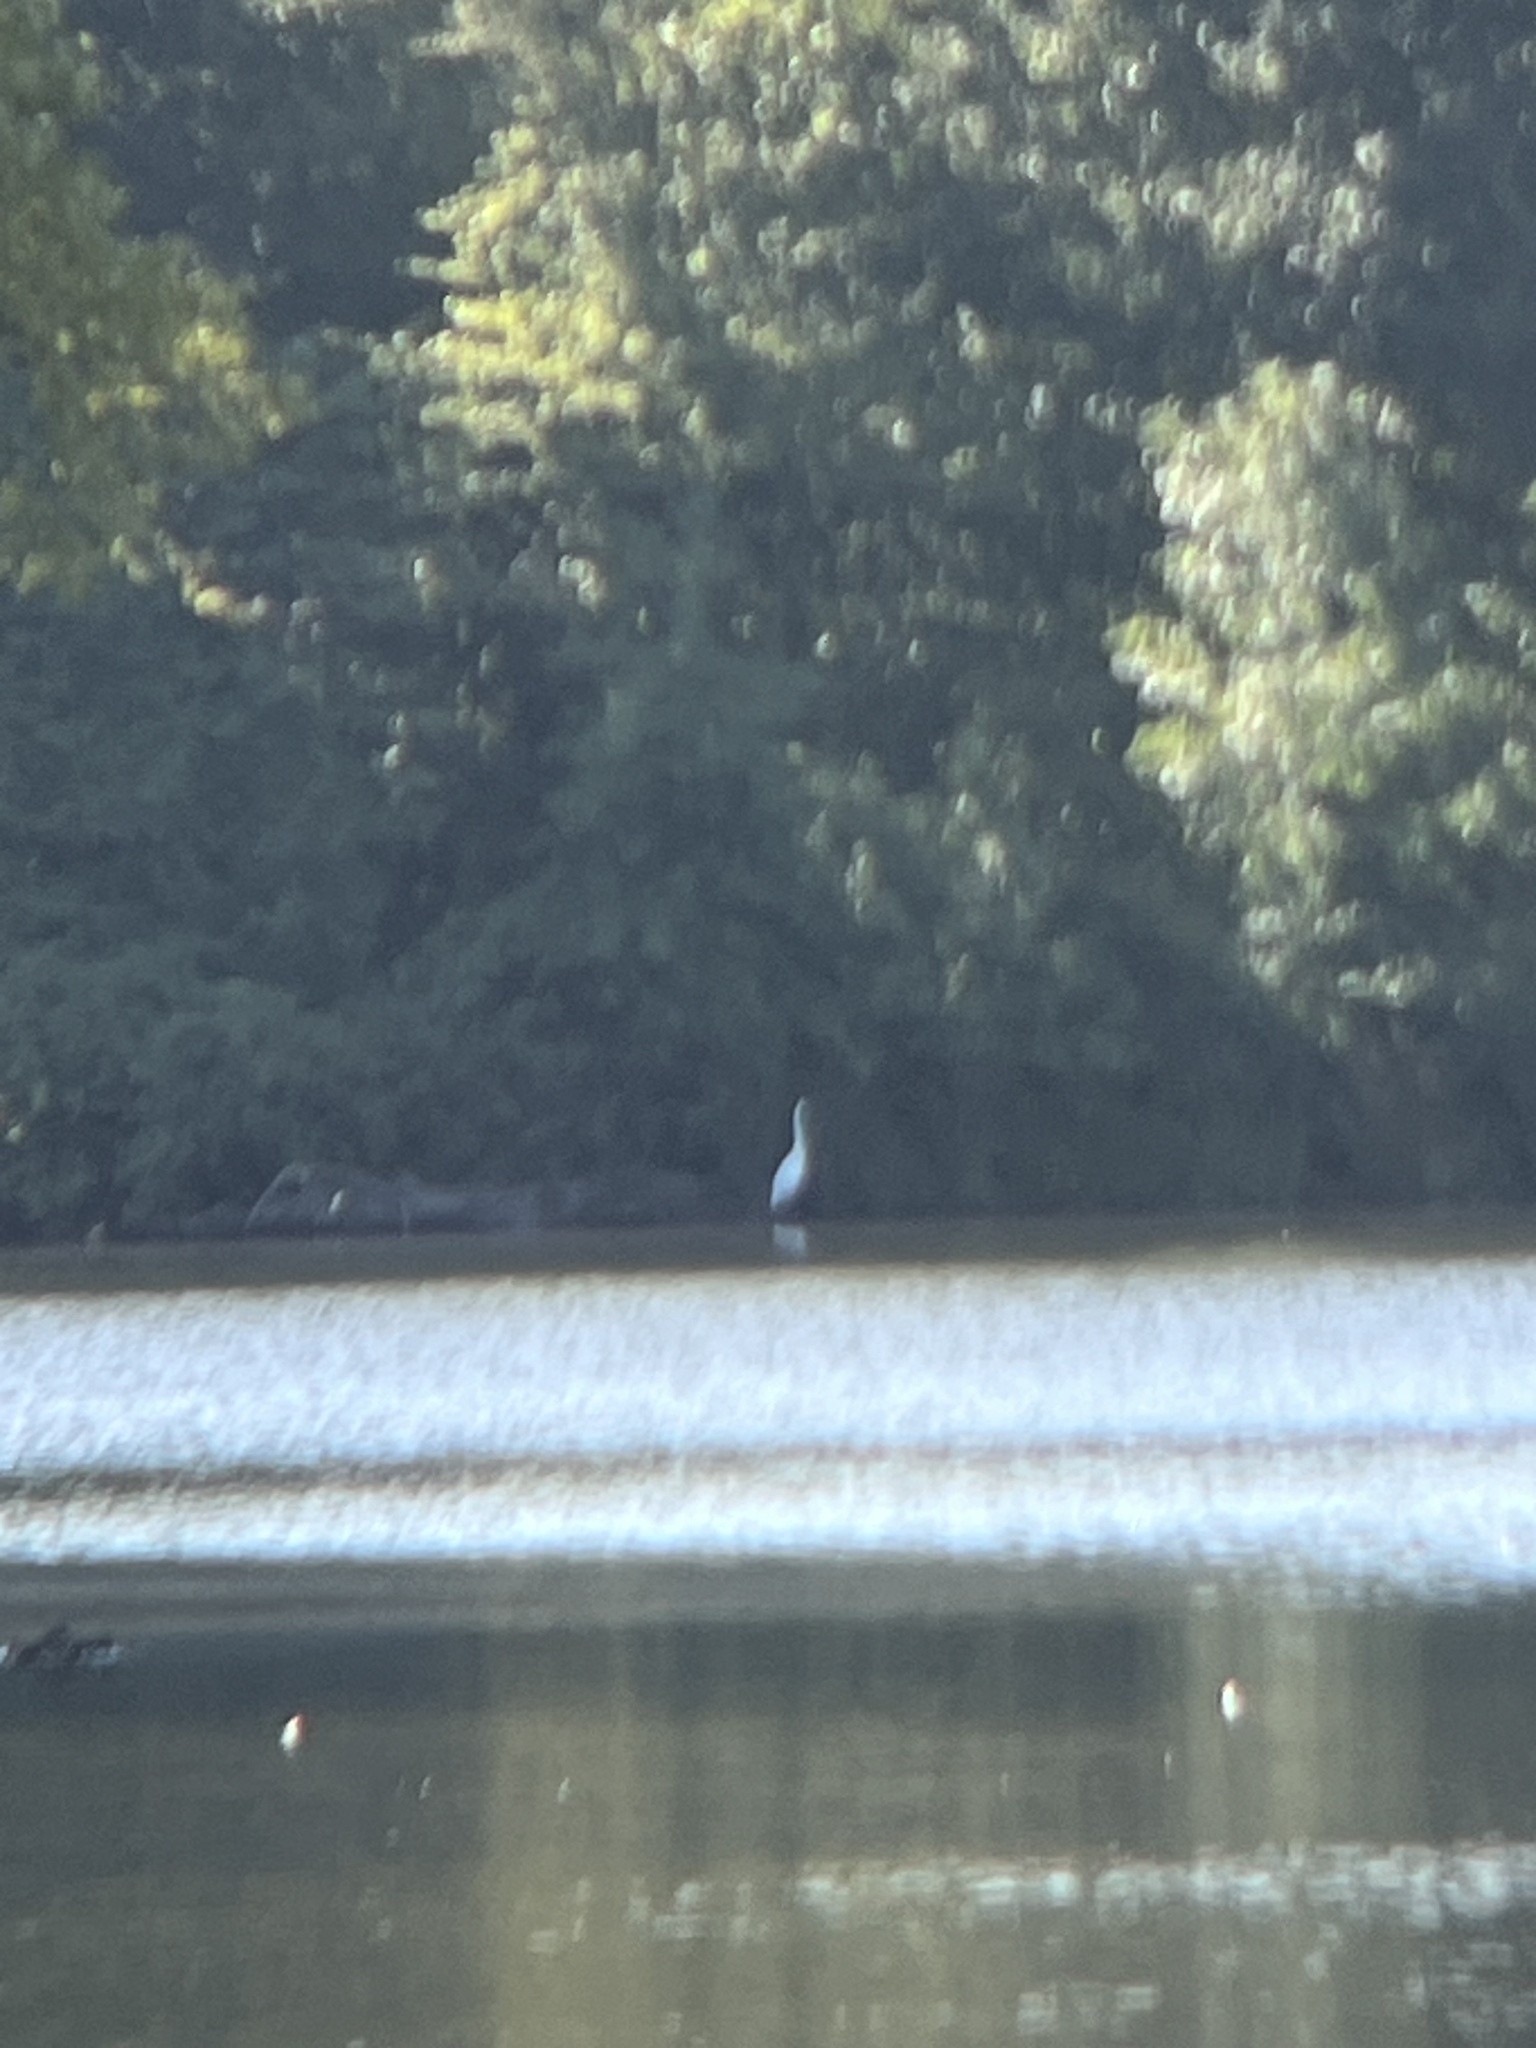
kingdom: Animalia
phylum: Chordata
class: Aves
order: Pelecaniformes
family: Ardeidae
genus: Ardea
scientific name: Ardea alba
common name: Great egret
